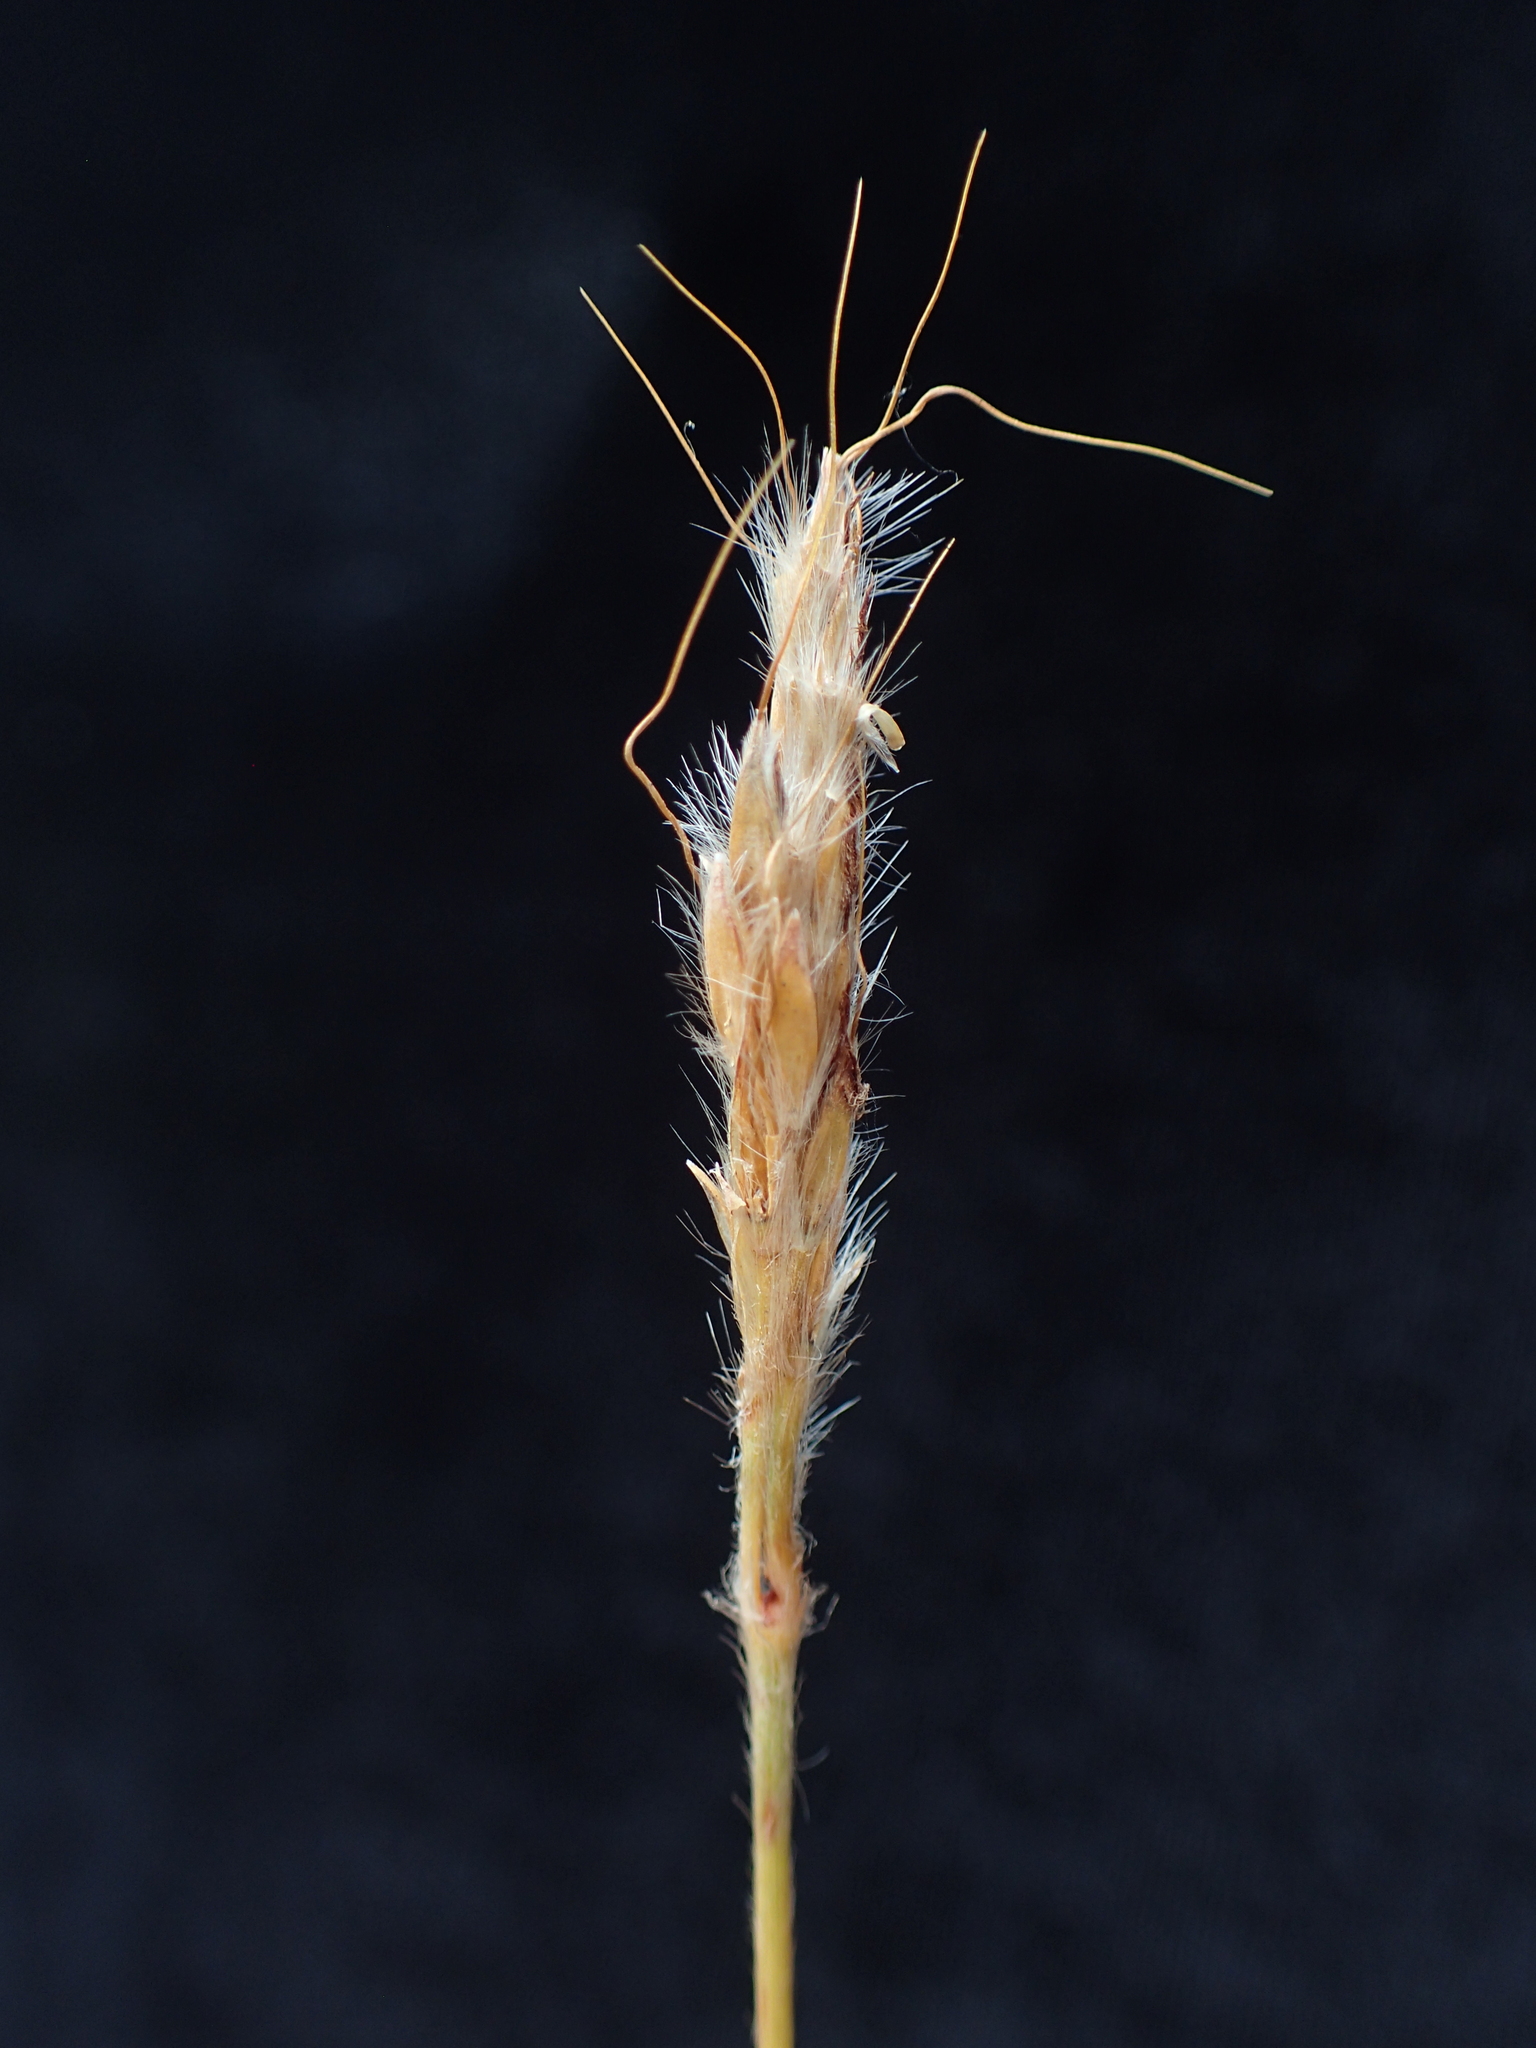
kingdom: Plantae
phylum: Tracheophyta
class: Liliopsida
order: Poales
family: Poaceae
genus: Eulalia
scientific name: Eulalia villosa
